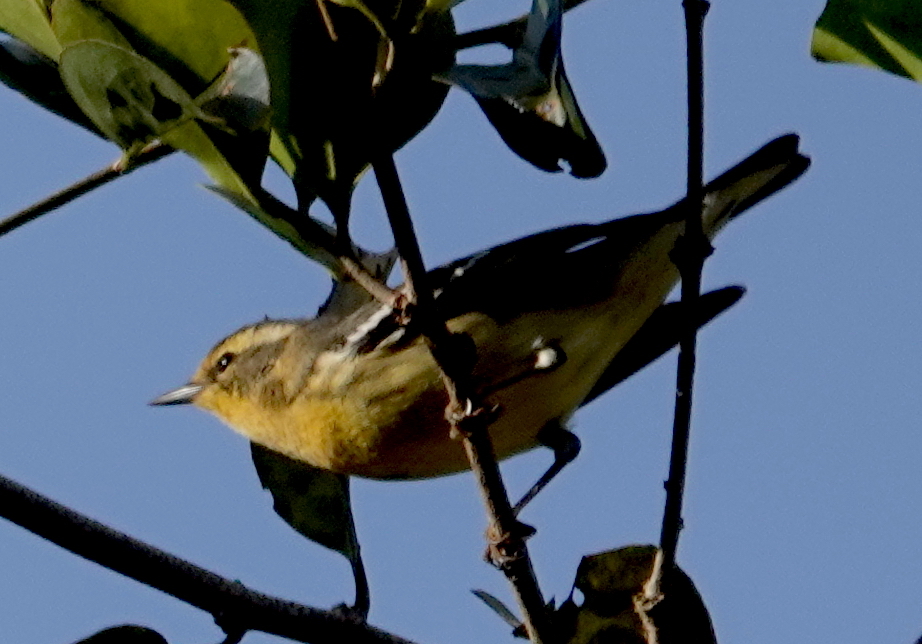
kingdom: Animalia
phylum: Chordata
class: Aves
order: Passeriformes
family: Parulidae
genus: Setophaga
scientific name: Setophaga fusca
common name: Blackburnian warbler
